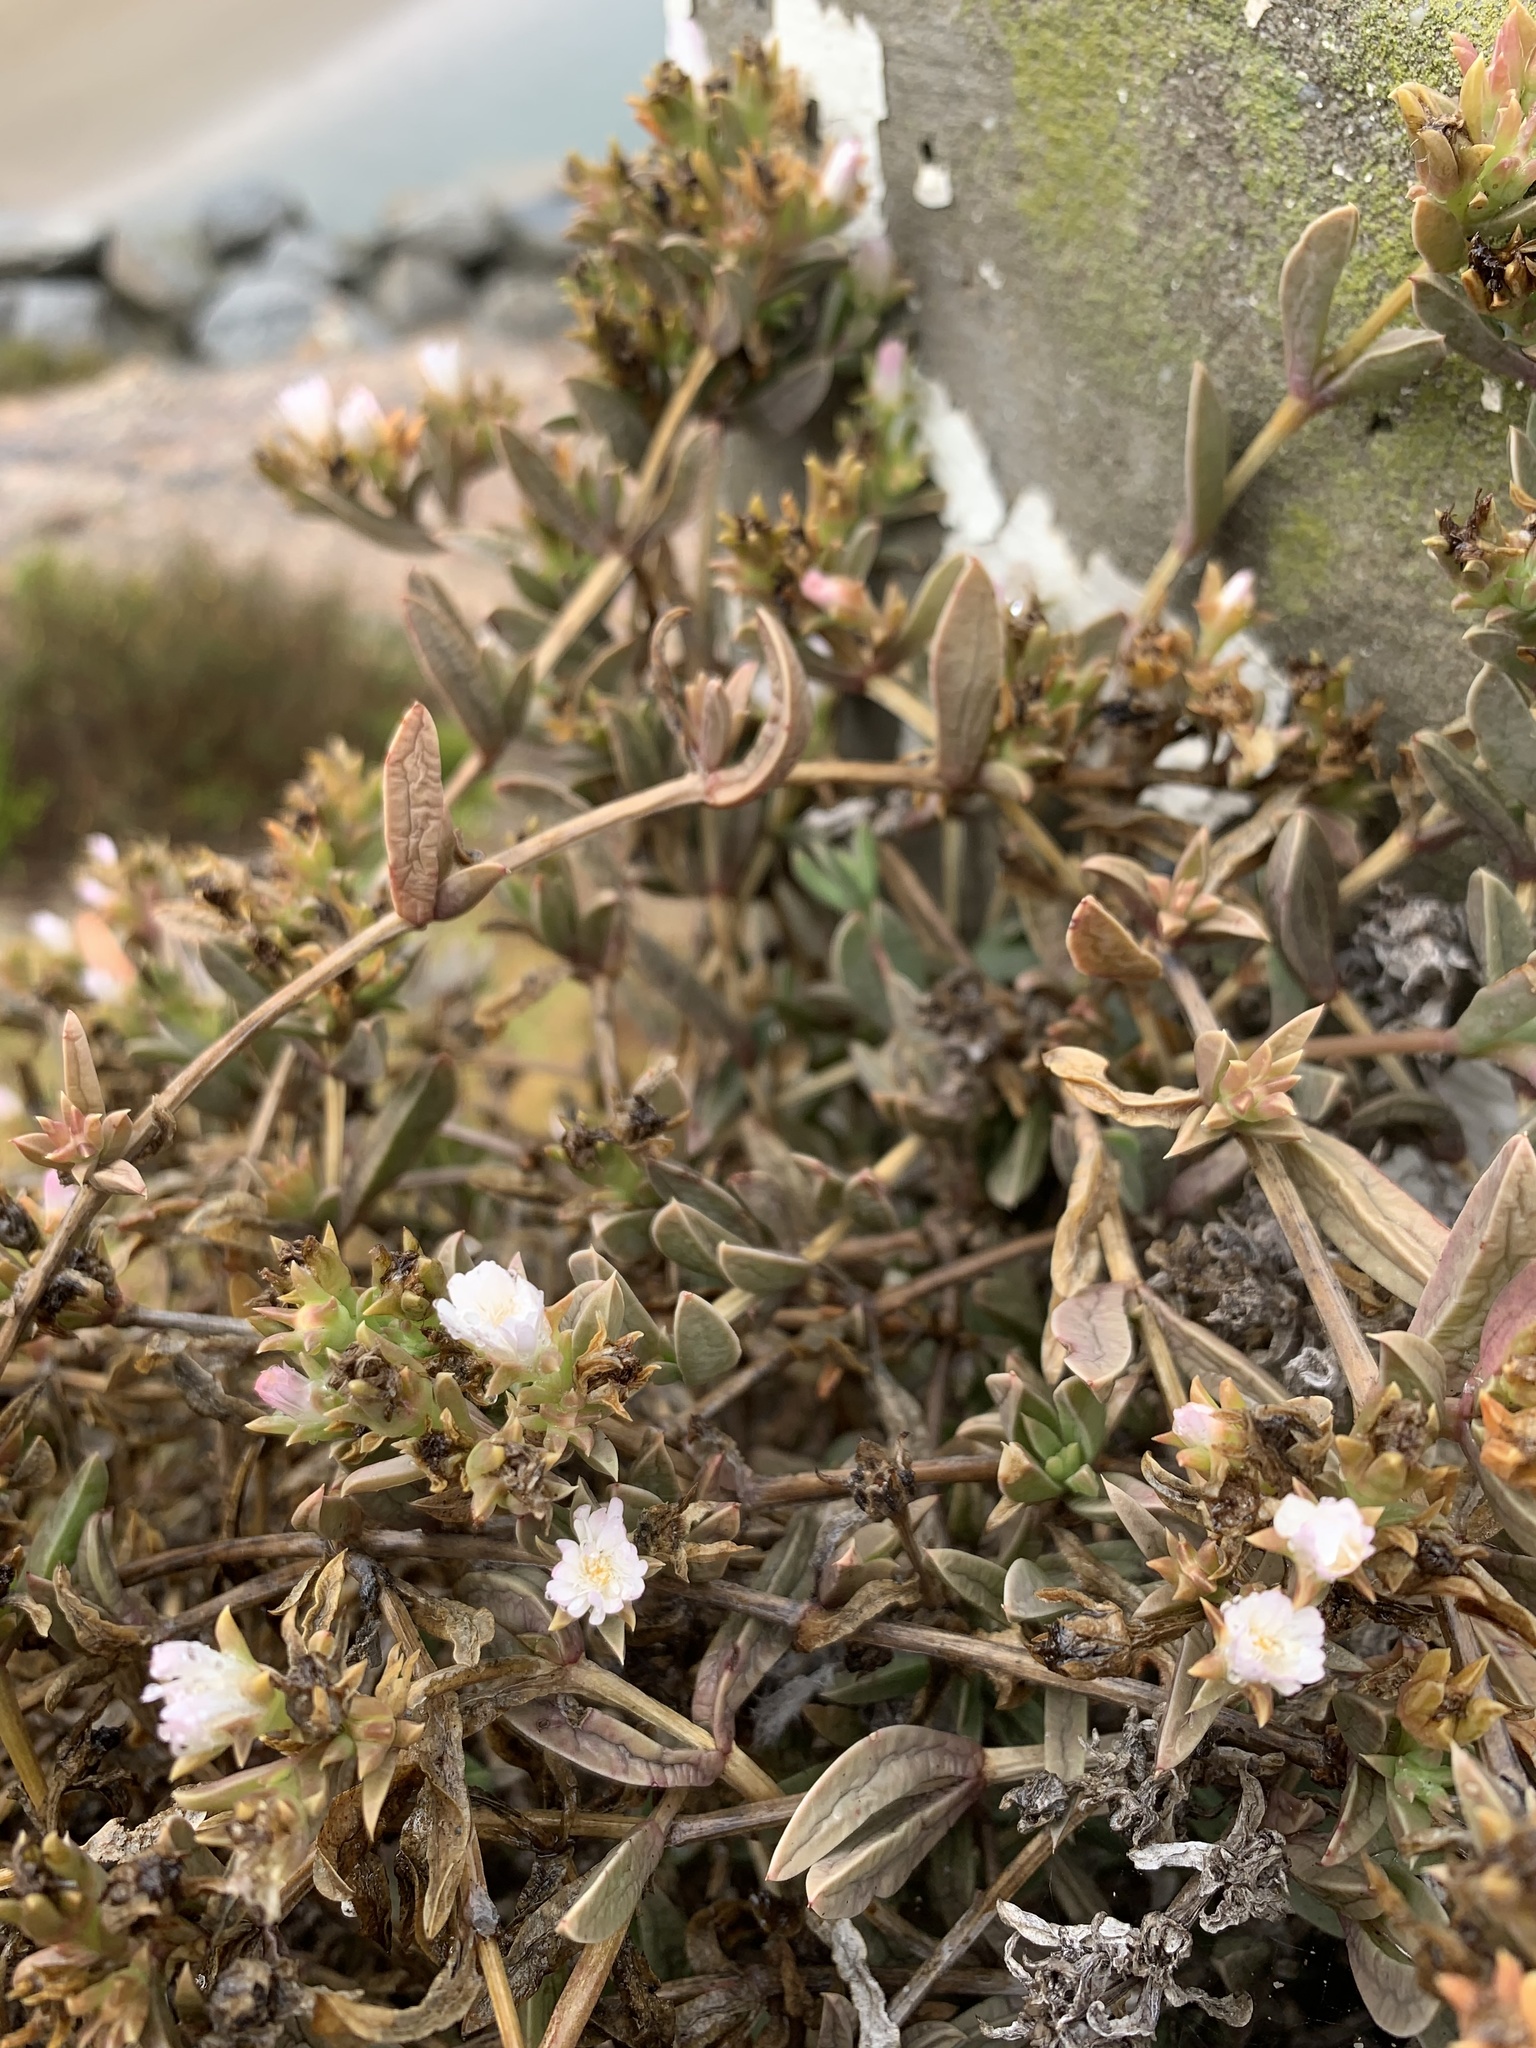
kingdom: Plantae
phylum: Tracheophyta
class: Magnoliopsida
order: Caryophyllales
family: Aizoaceae
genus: Delosperma
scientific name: Delosperma litorale
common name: Seaside delosperma
